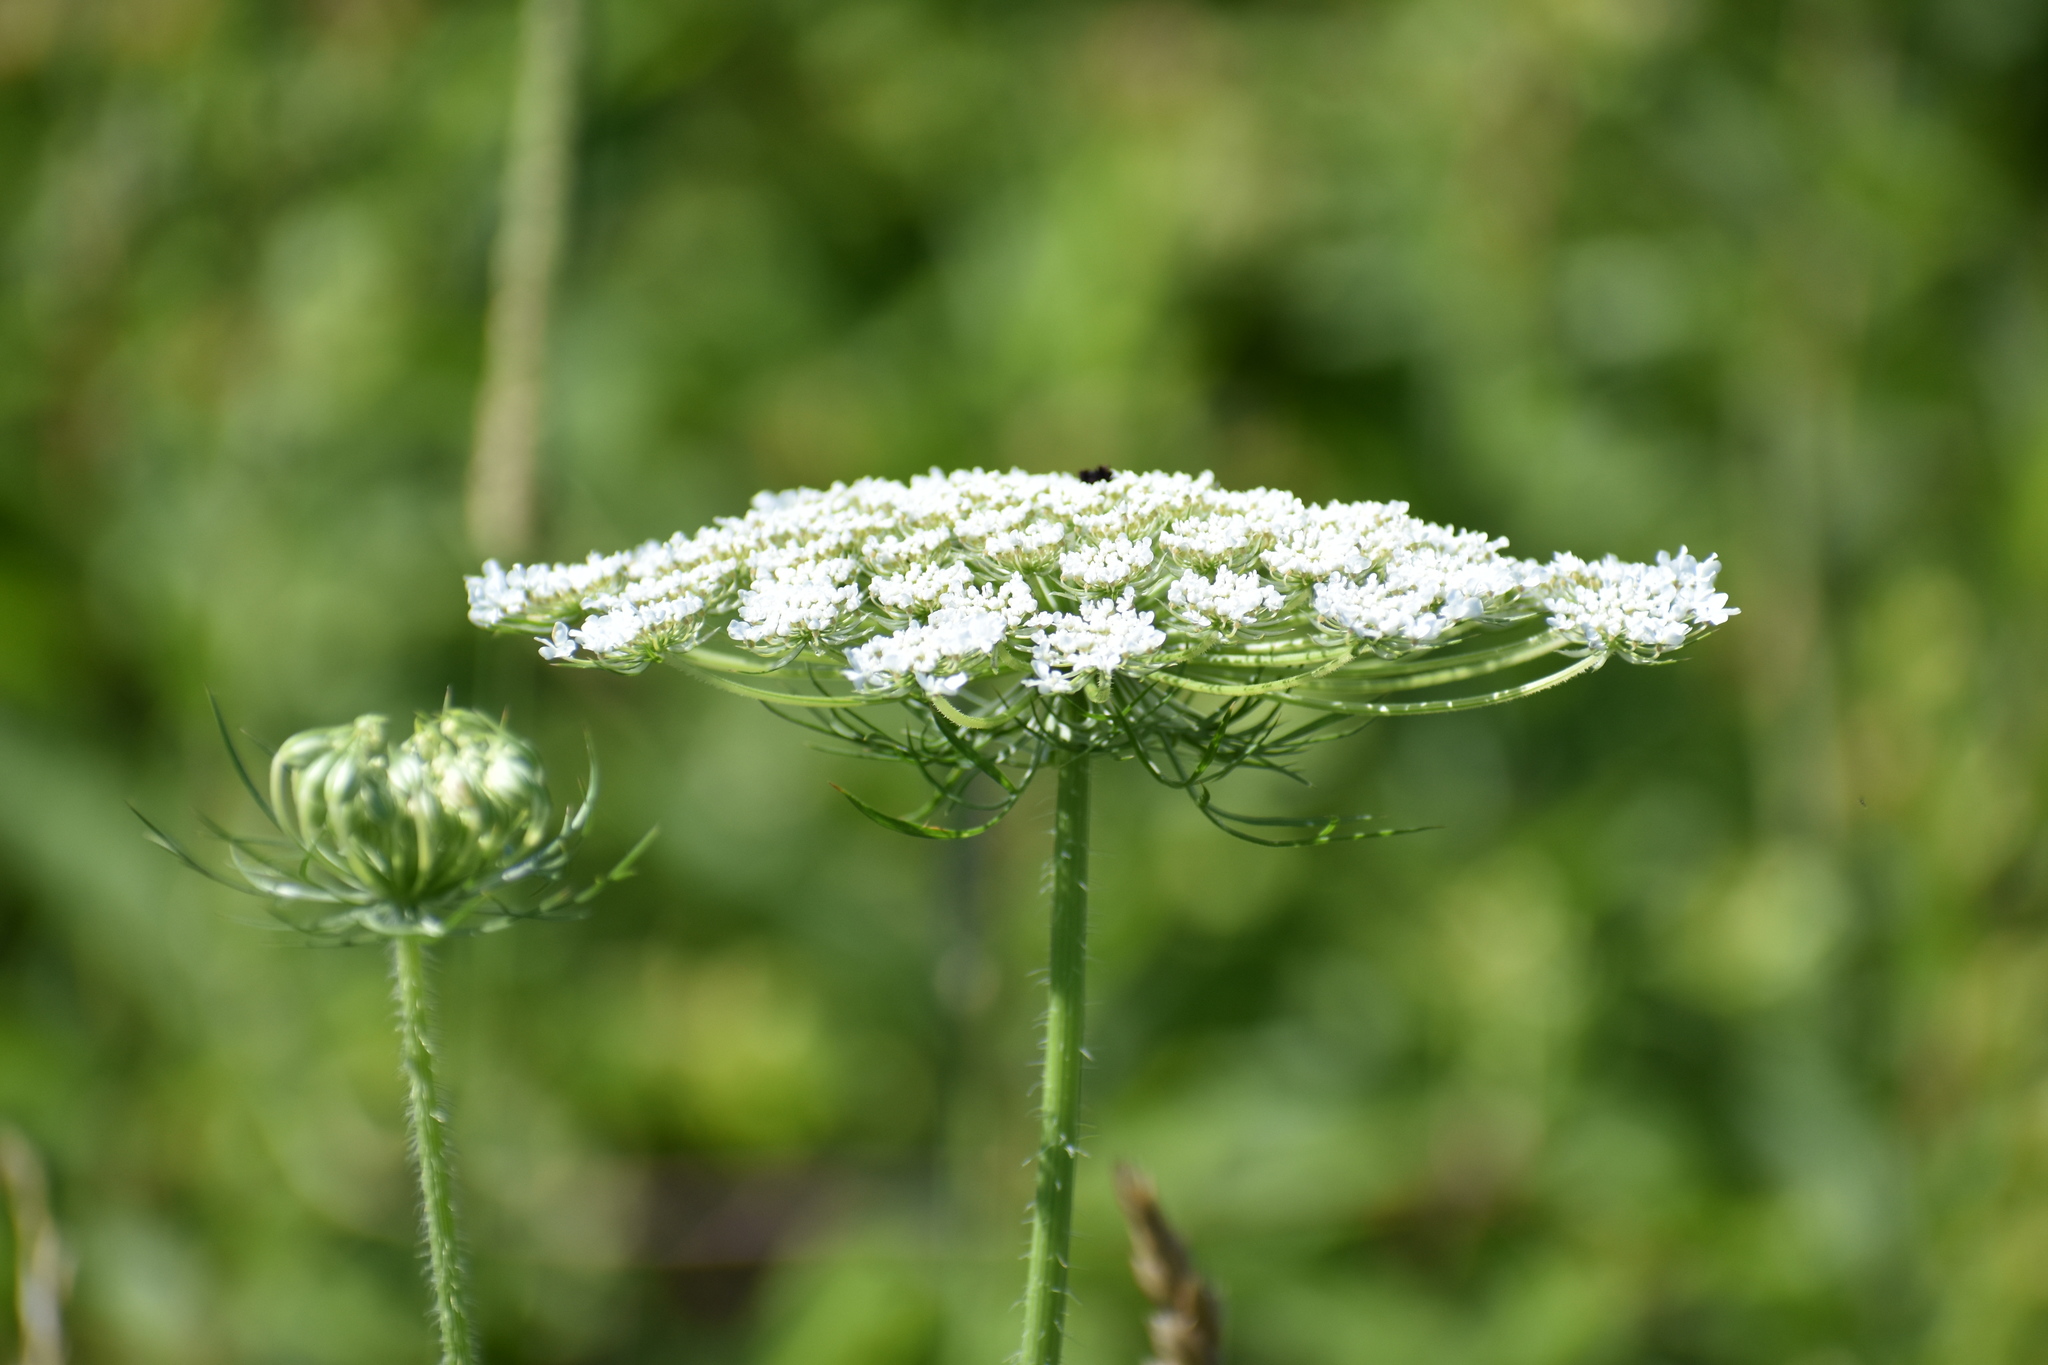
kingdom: Plantae
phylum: Tracheophyta
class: Magnoliopsida
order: Apiales
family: Apiaceae
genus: Daucus
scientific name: Daucus carota
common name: Wild carrot
